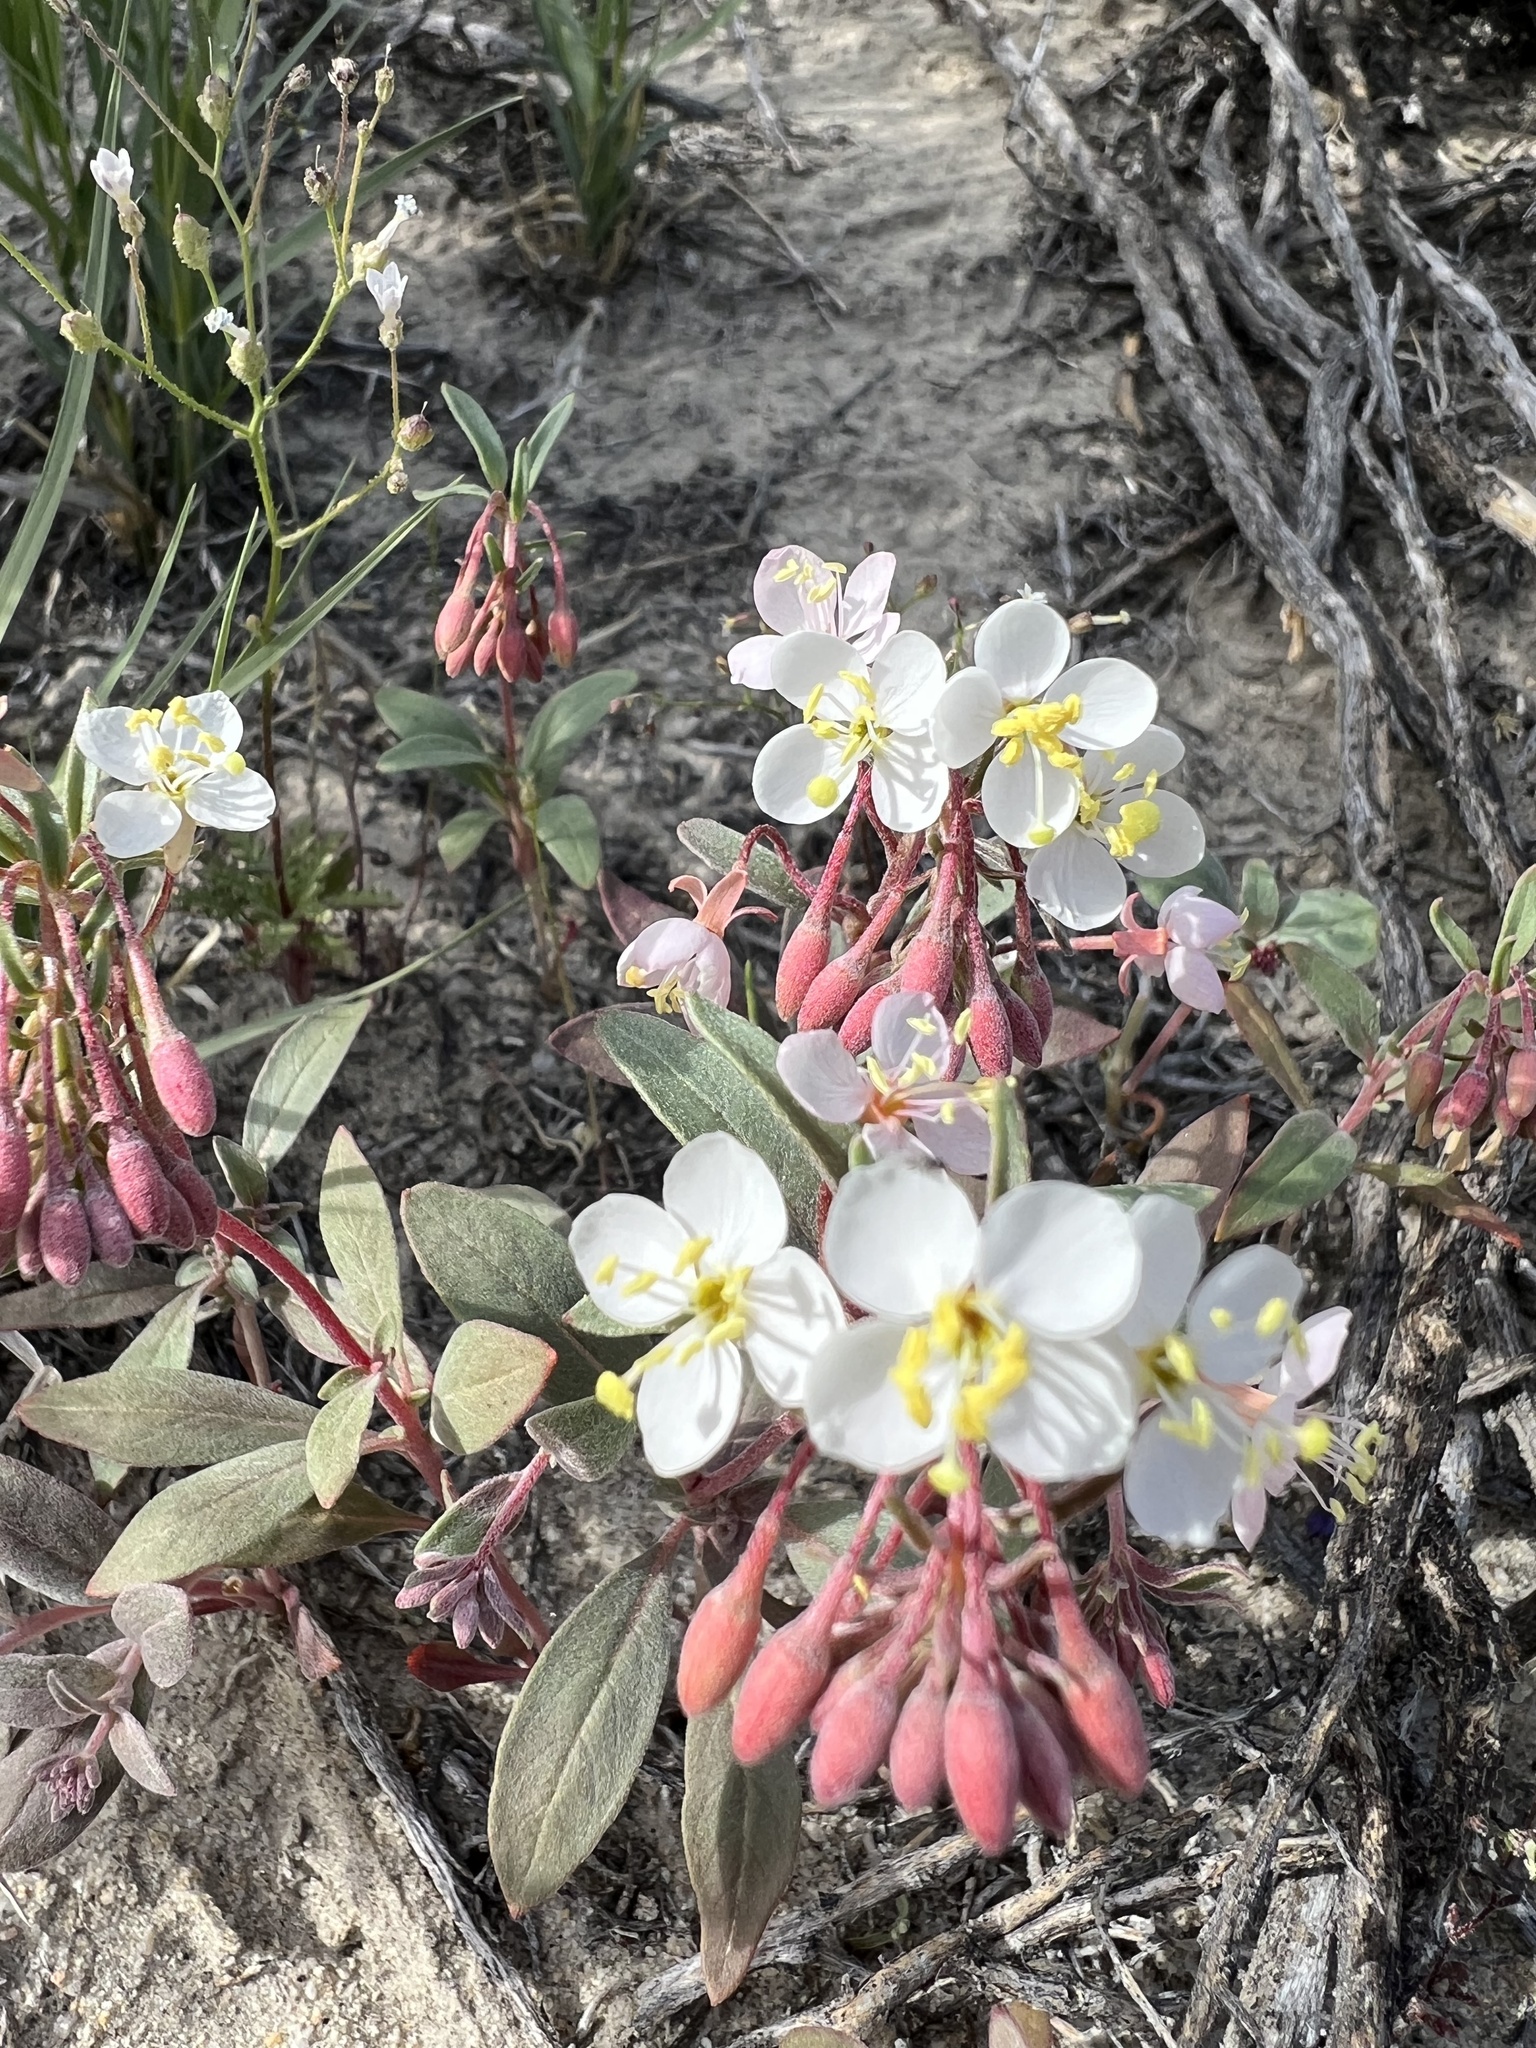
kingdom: Plantae
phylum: Tracheophyta
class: Magnoliopsida
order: Myrtales
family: Onagraceae
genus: Eremothera
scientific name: Eremothera boothii
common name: Booth's evening primrose
